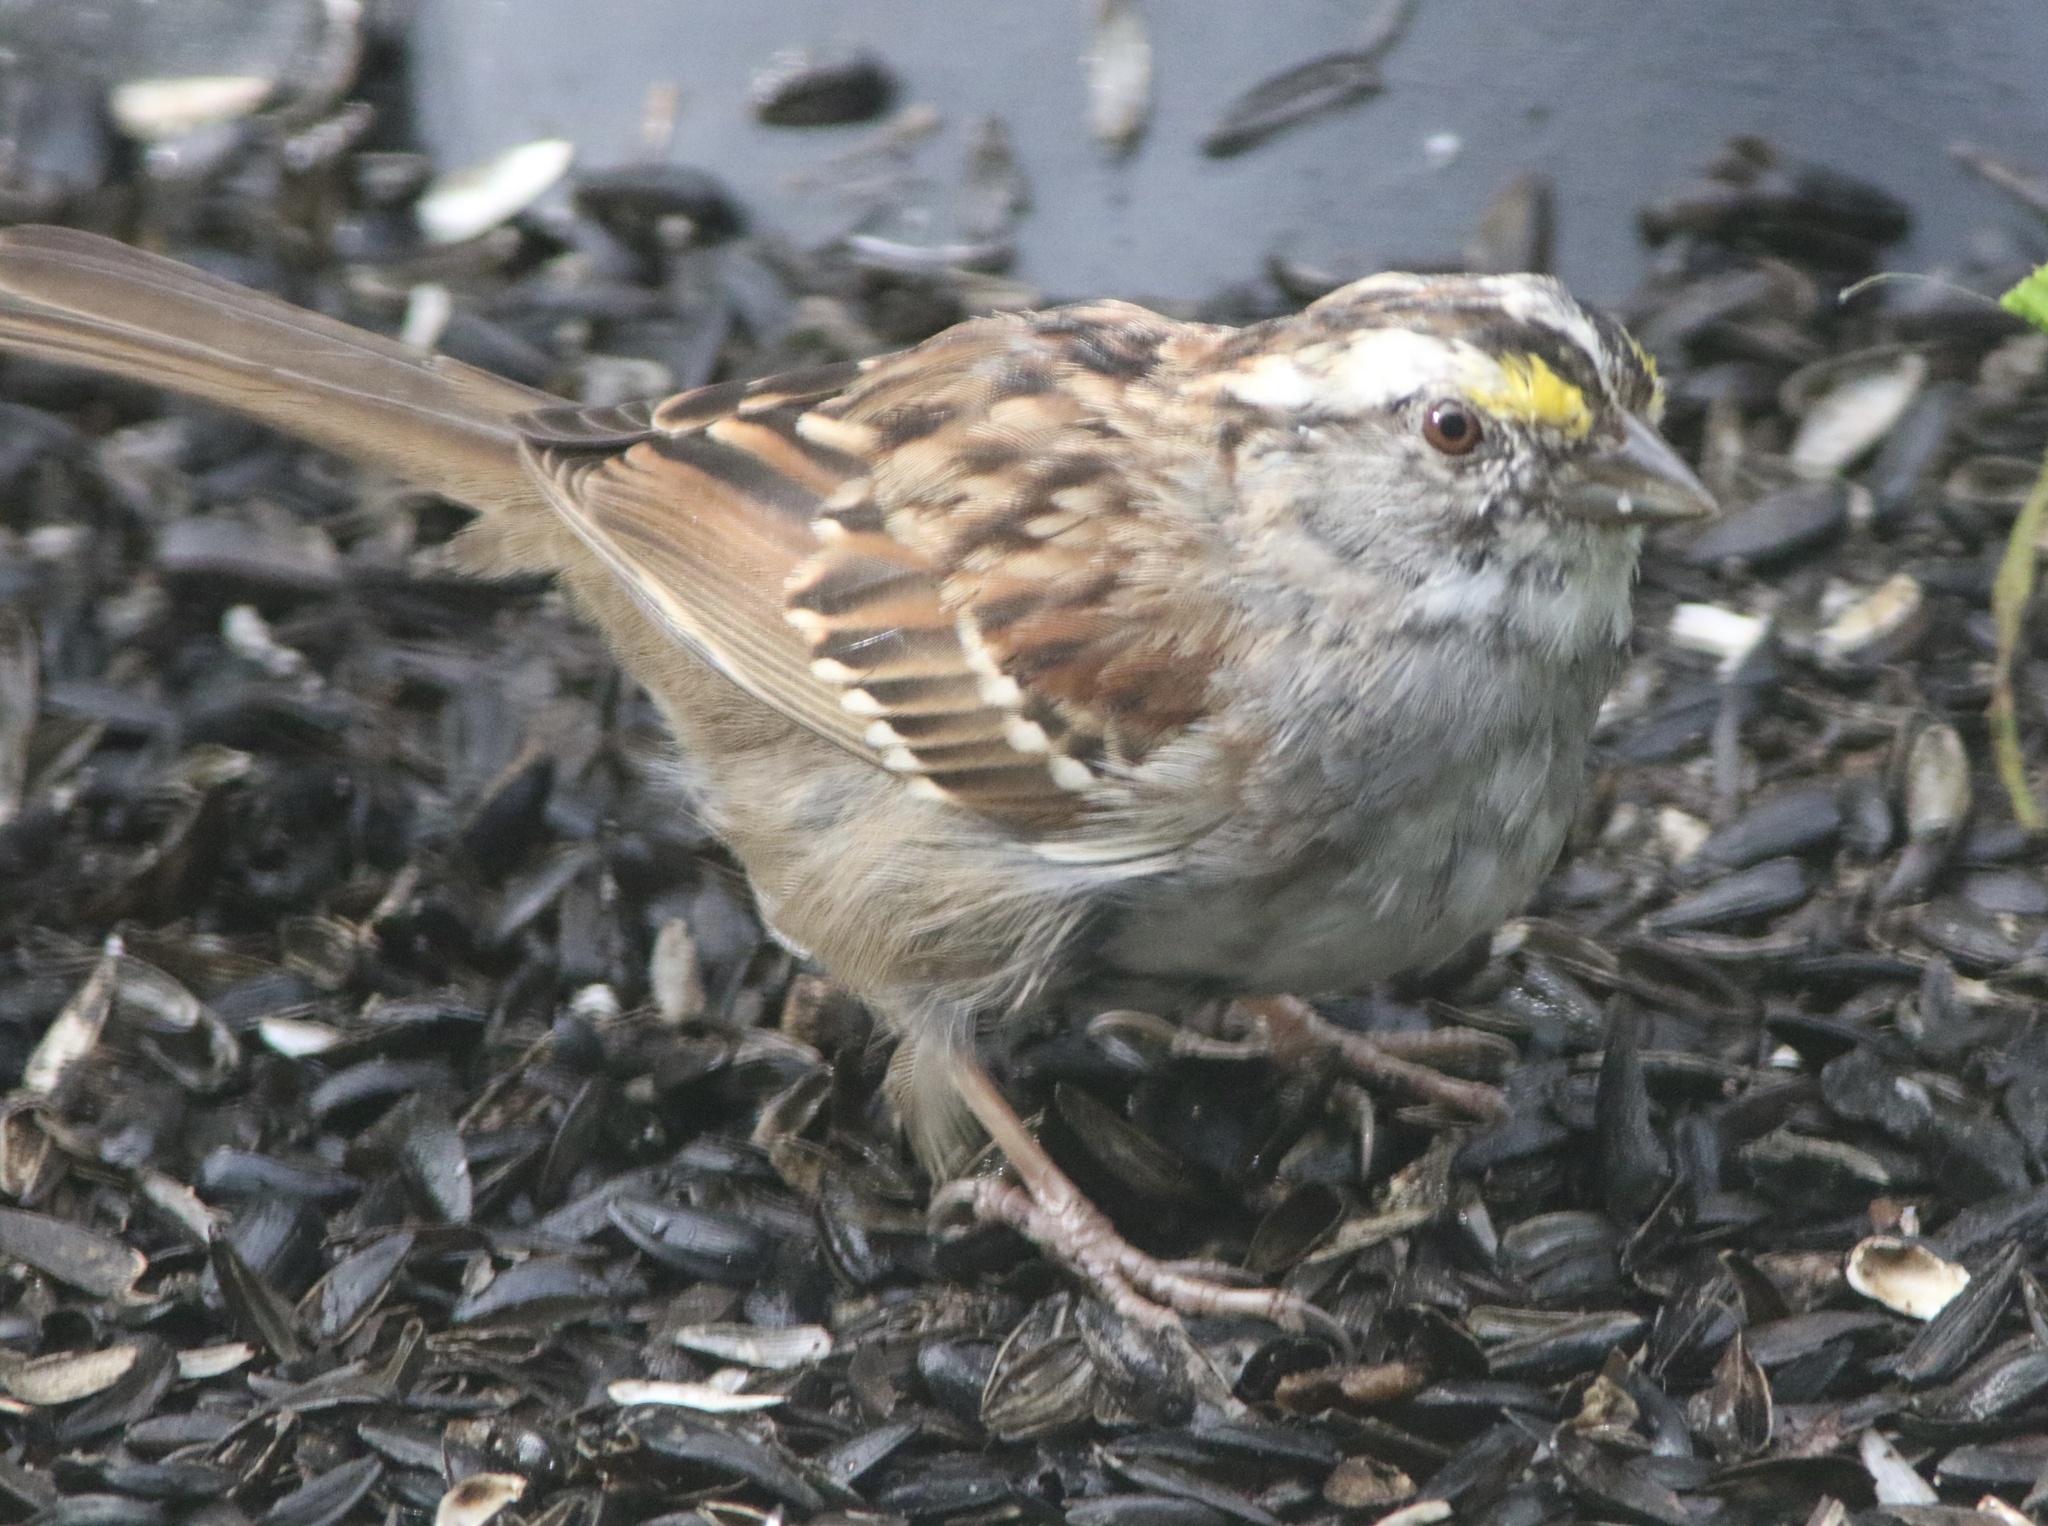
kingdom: Animalia
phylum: Chordata
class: Aves
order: Passeriformes
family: Passerellidae
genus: Zonotrichia
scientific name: Zonotrichia albicollis
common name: White-throated sparrow
